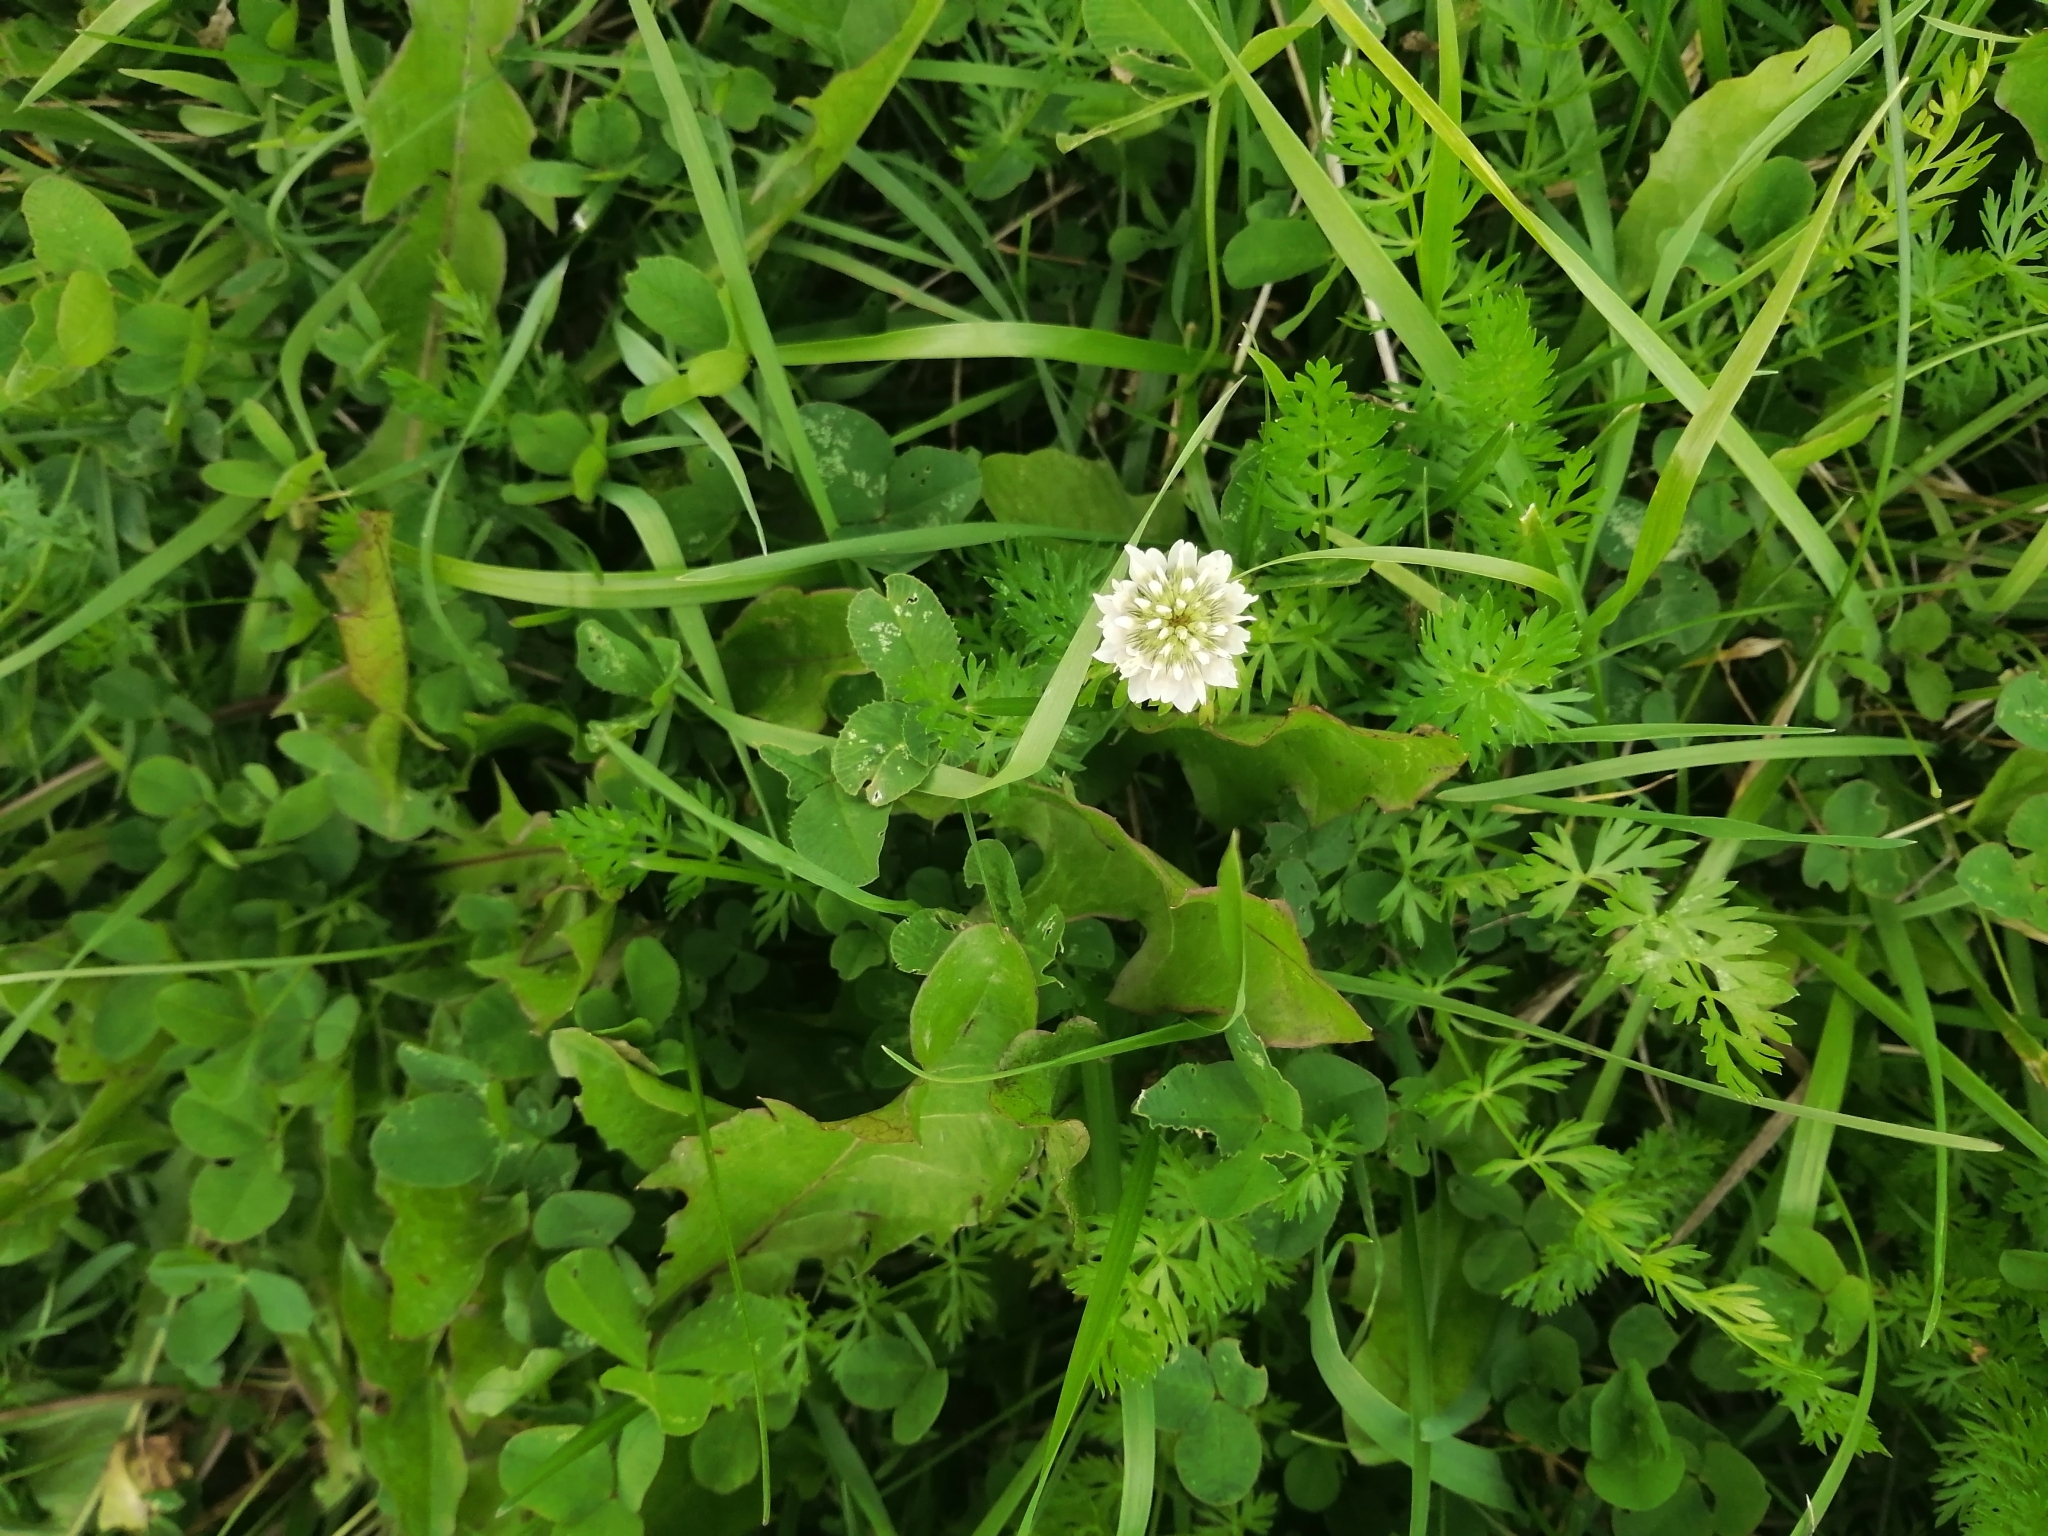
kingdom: Plantae
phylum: Tracheophyta
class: Magnoliopsida
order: Fabales
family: Fabaceae
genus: Trifolium
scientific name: Trifolium repens
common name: White clover
